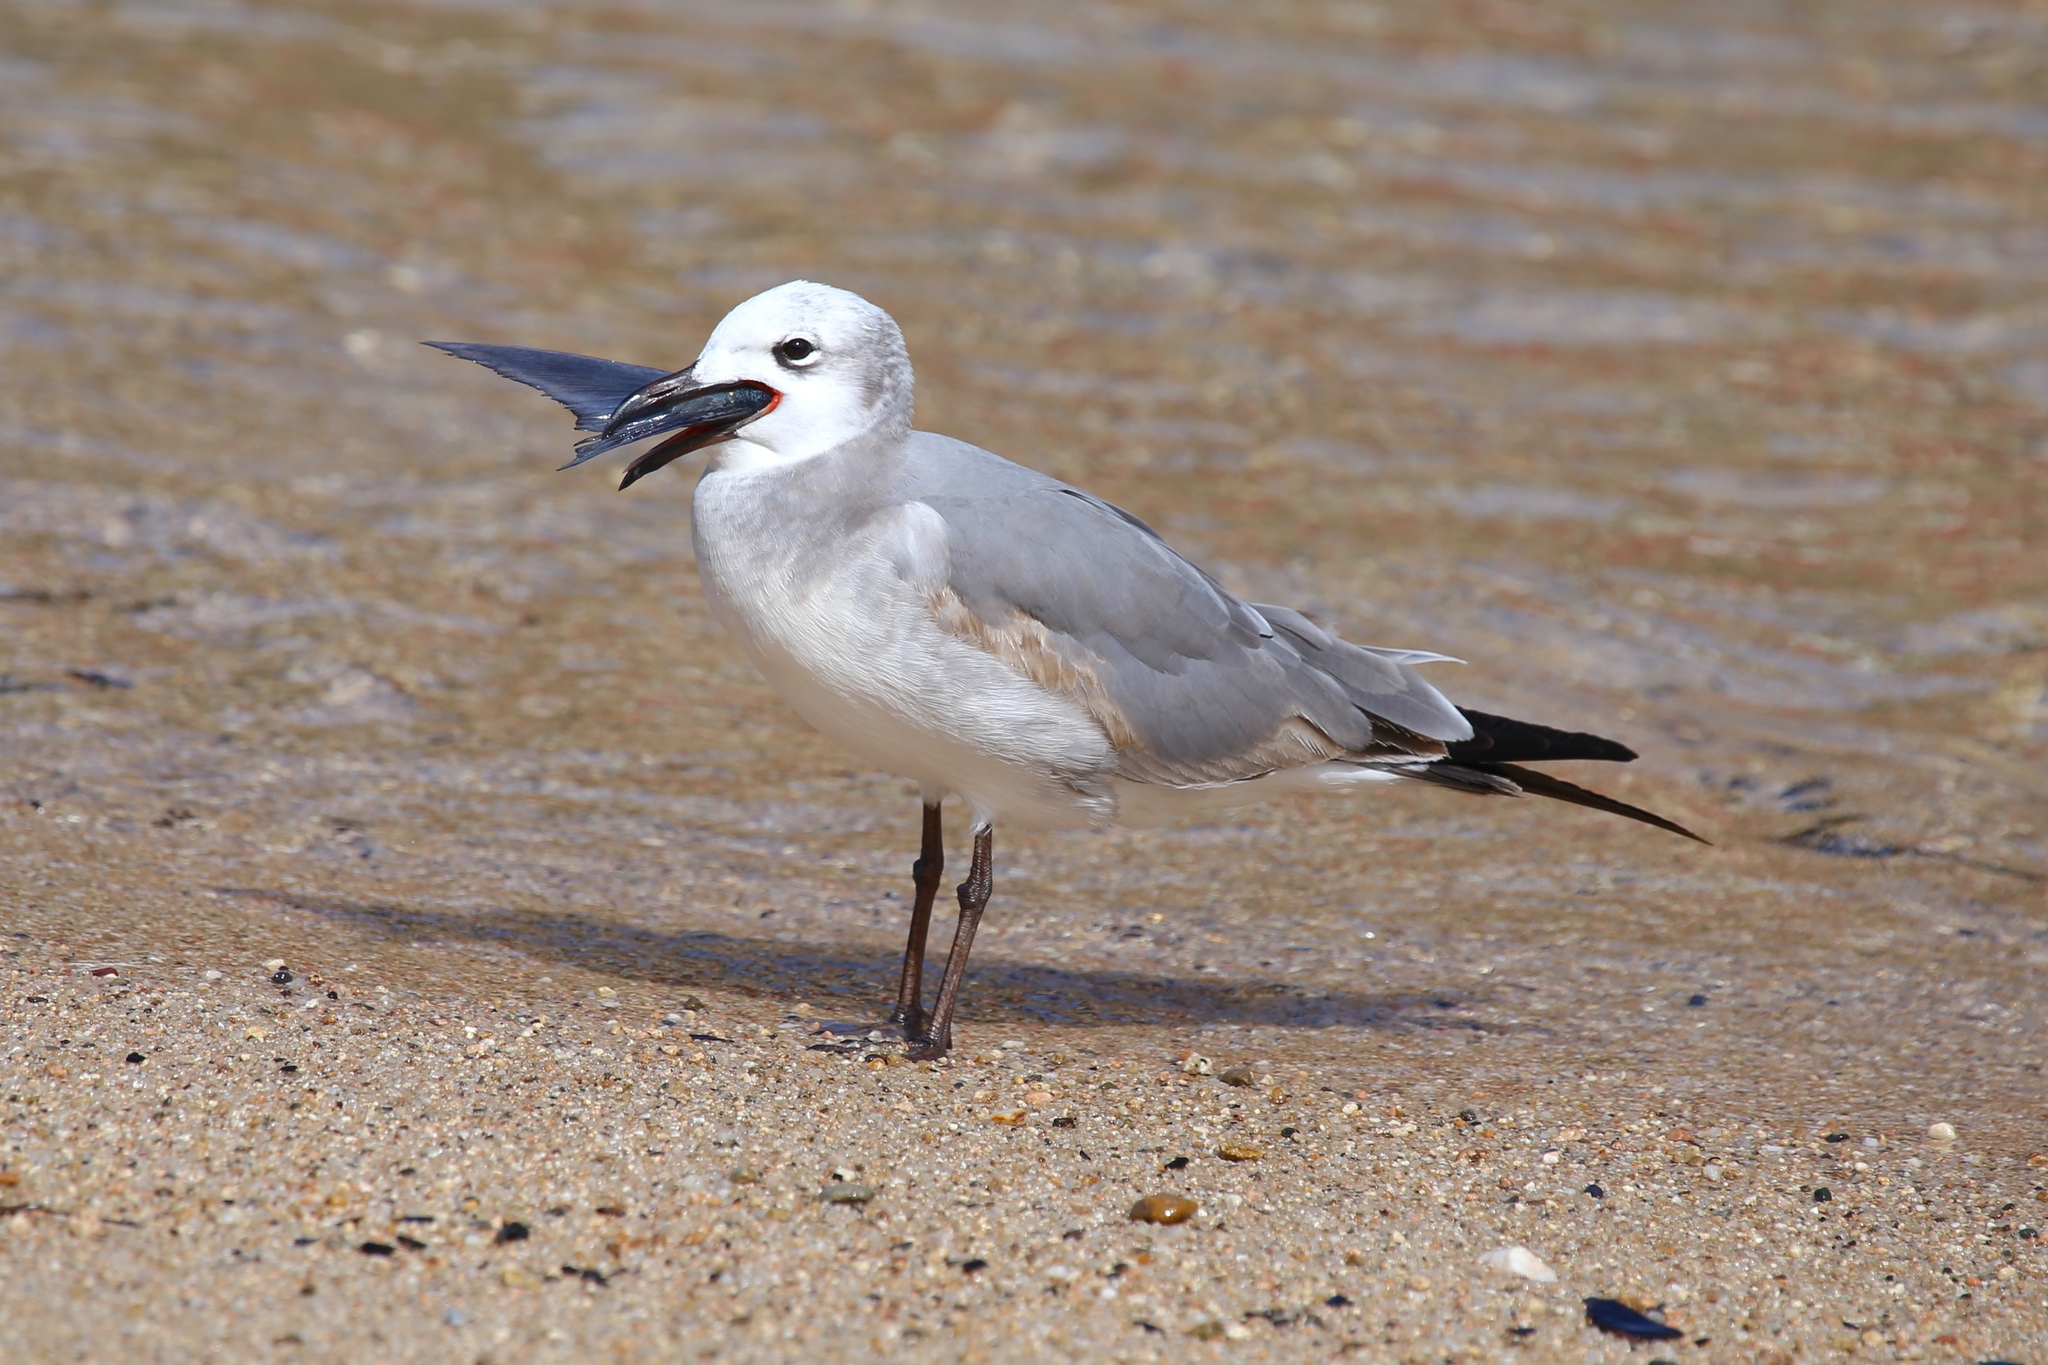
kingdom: Animalia
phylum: Chordata
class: Aves
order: Charadriiformes
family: Laridae
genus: Leucophaeus
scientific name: Leucophaeus atricilla
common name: Laughing gull
